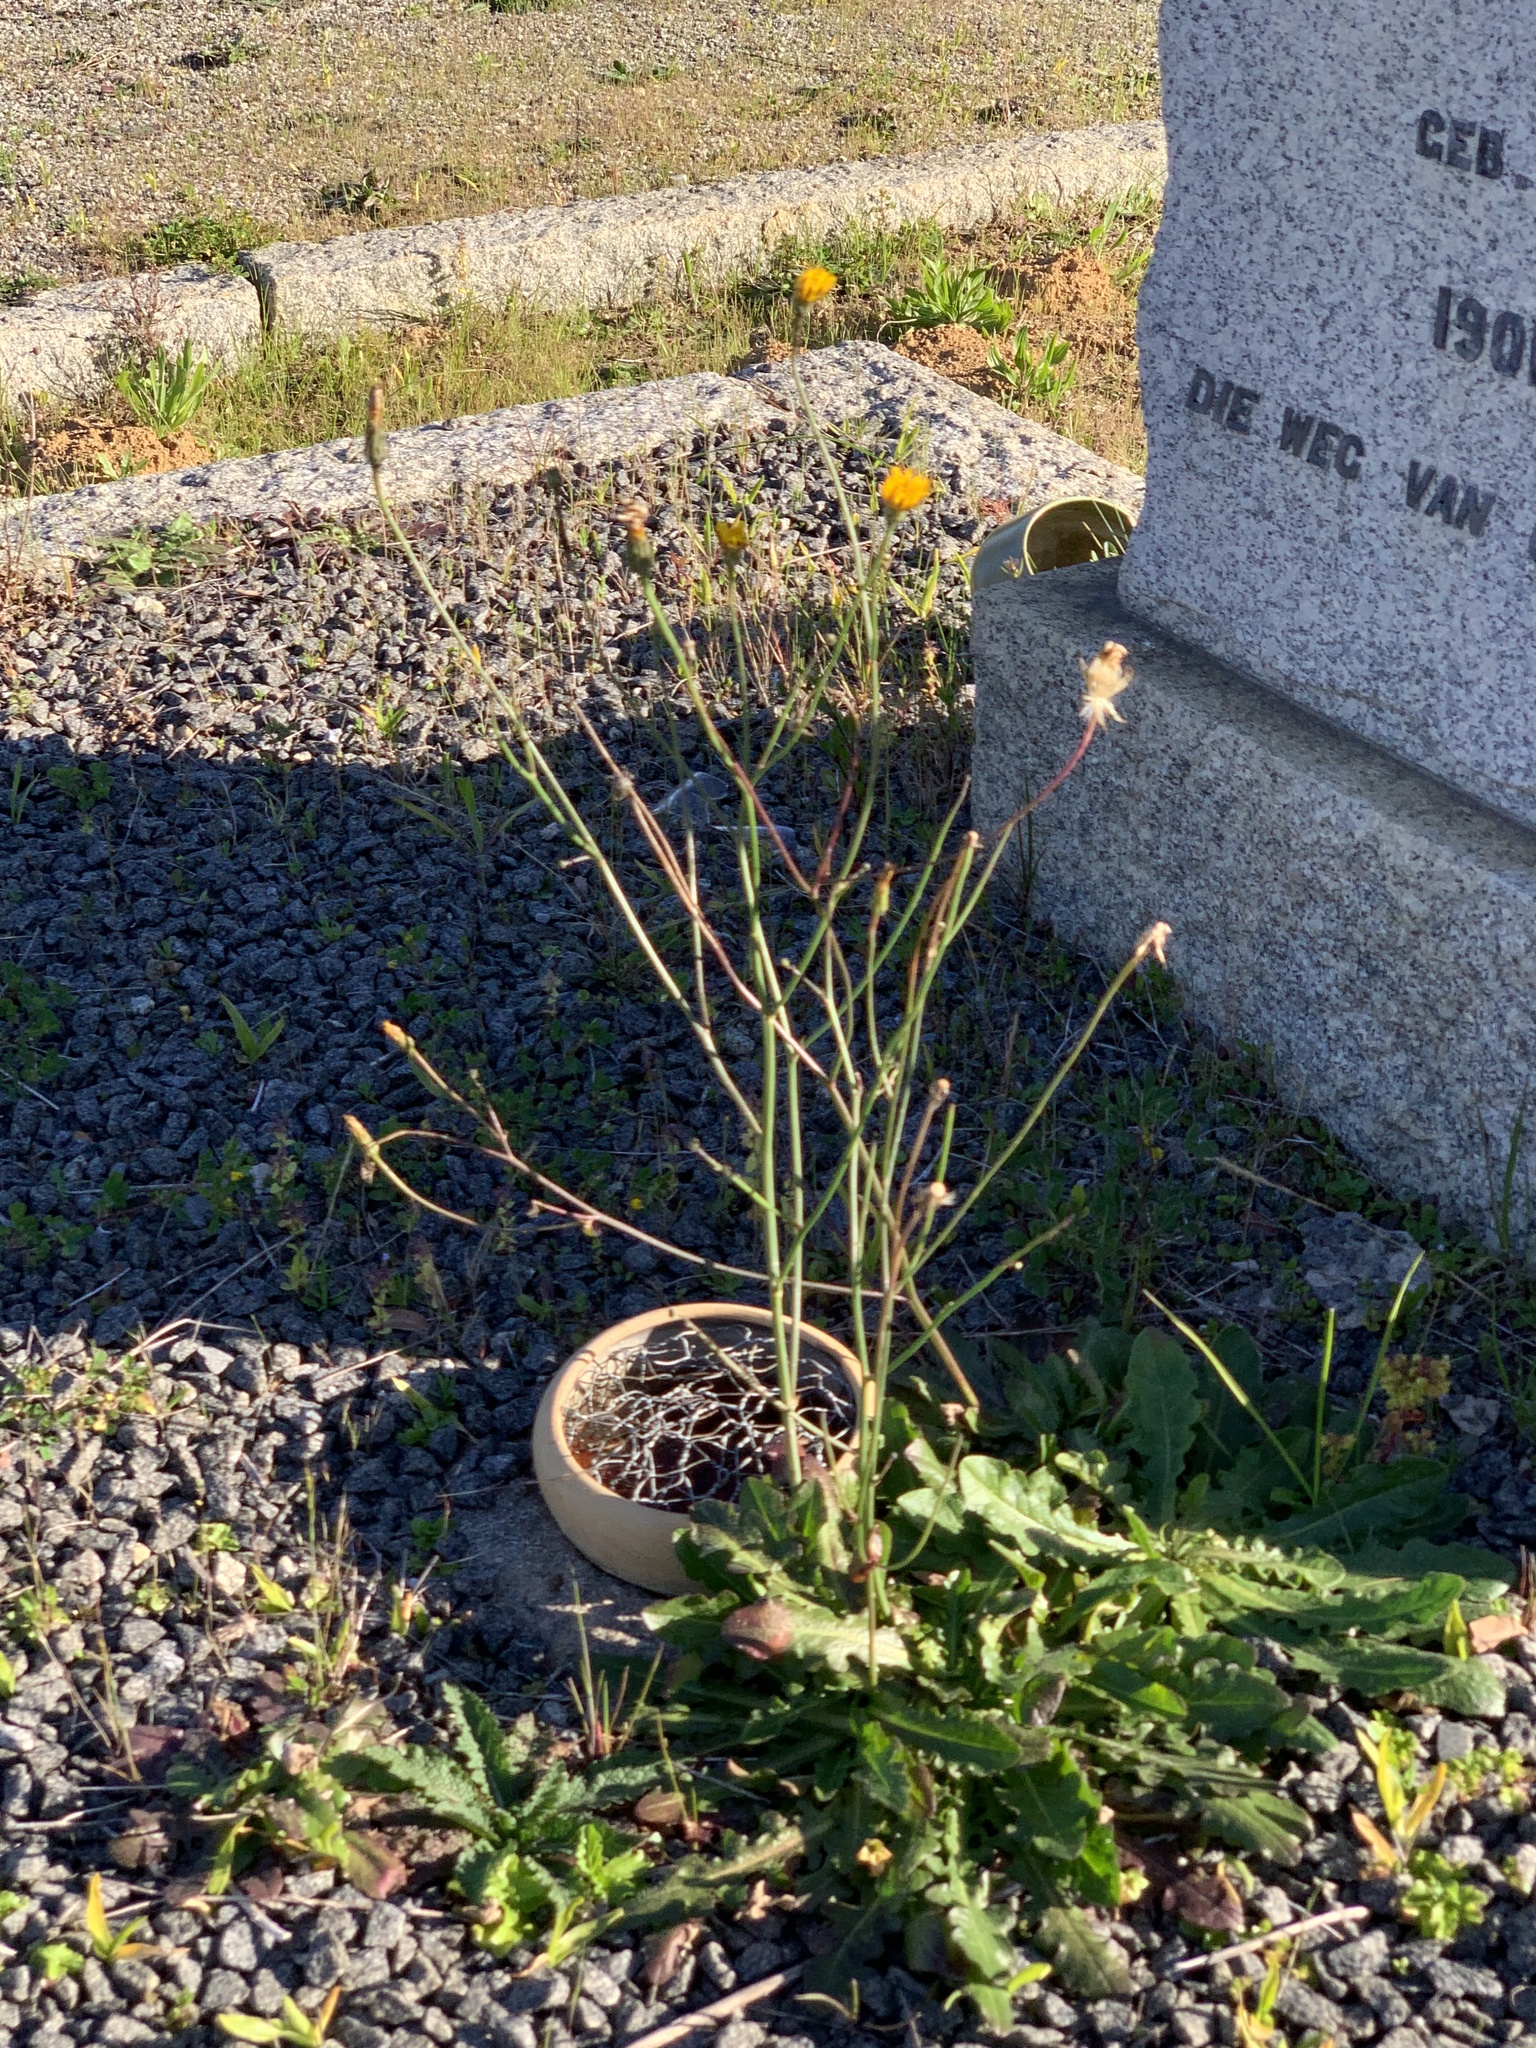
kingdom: Plantae
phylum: Tracheophyta
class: Magnoliopsida
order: Asterales
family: Asteraceae
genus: Hypochaeris
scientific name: Hypochaeris radicata
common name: Flatweed
